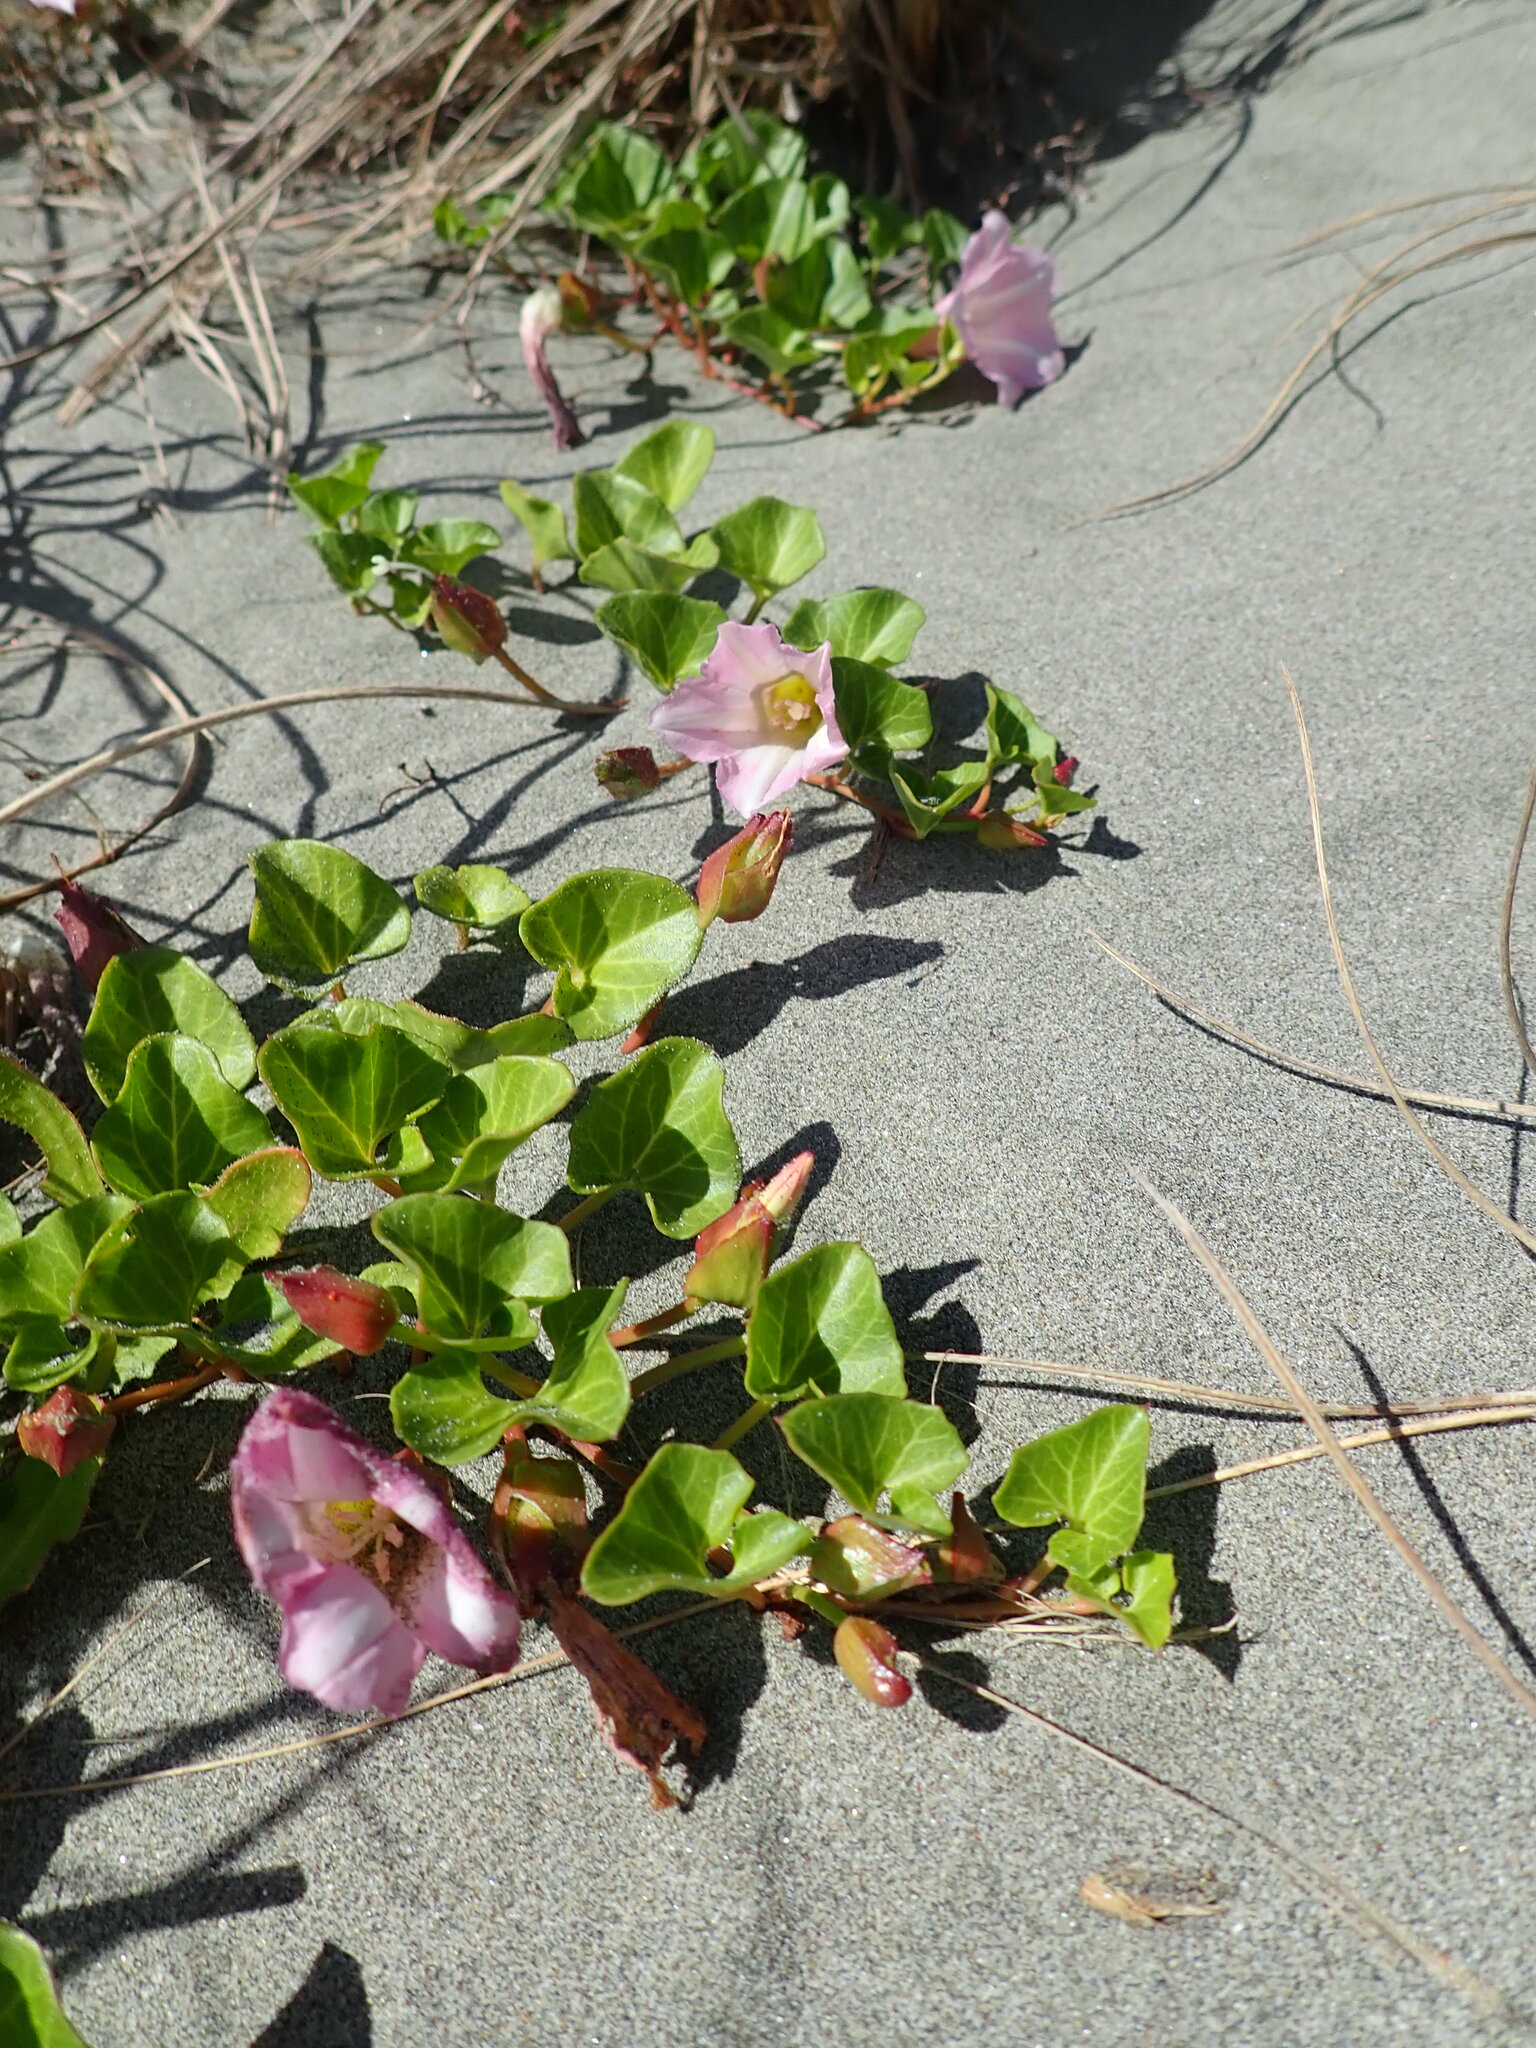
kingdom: Plantae
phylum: Tracheophyta
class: Magnoliopsida
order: Solanales
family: Convolvulaceae
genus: Calystegia
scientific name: Calystegia soldanella
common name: Sea bindweed
